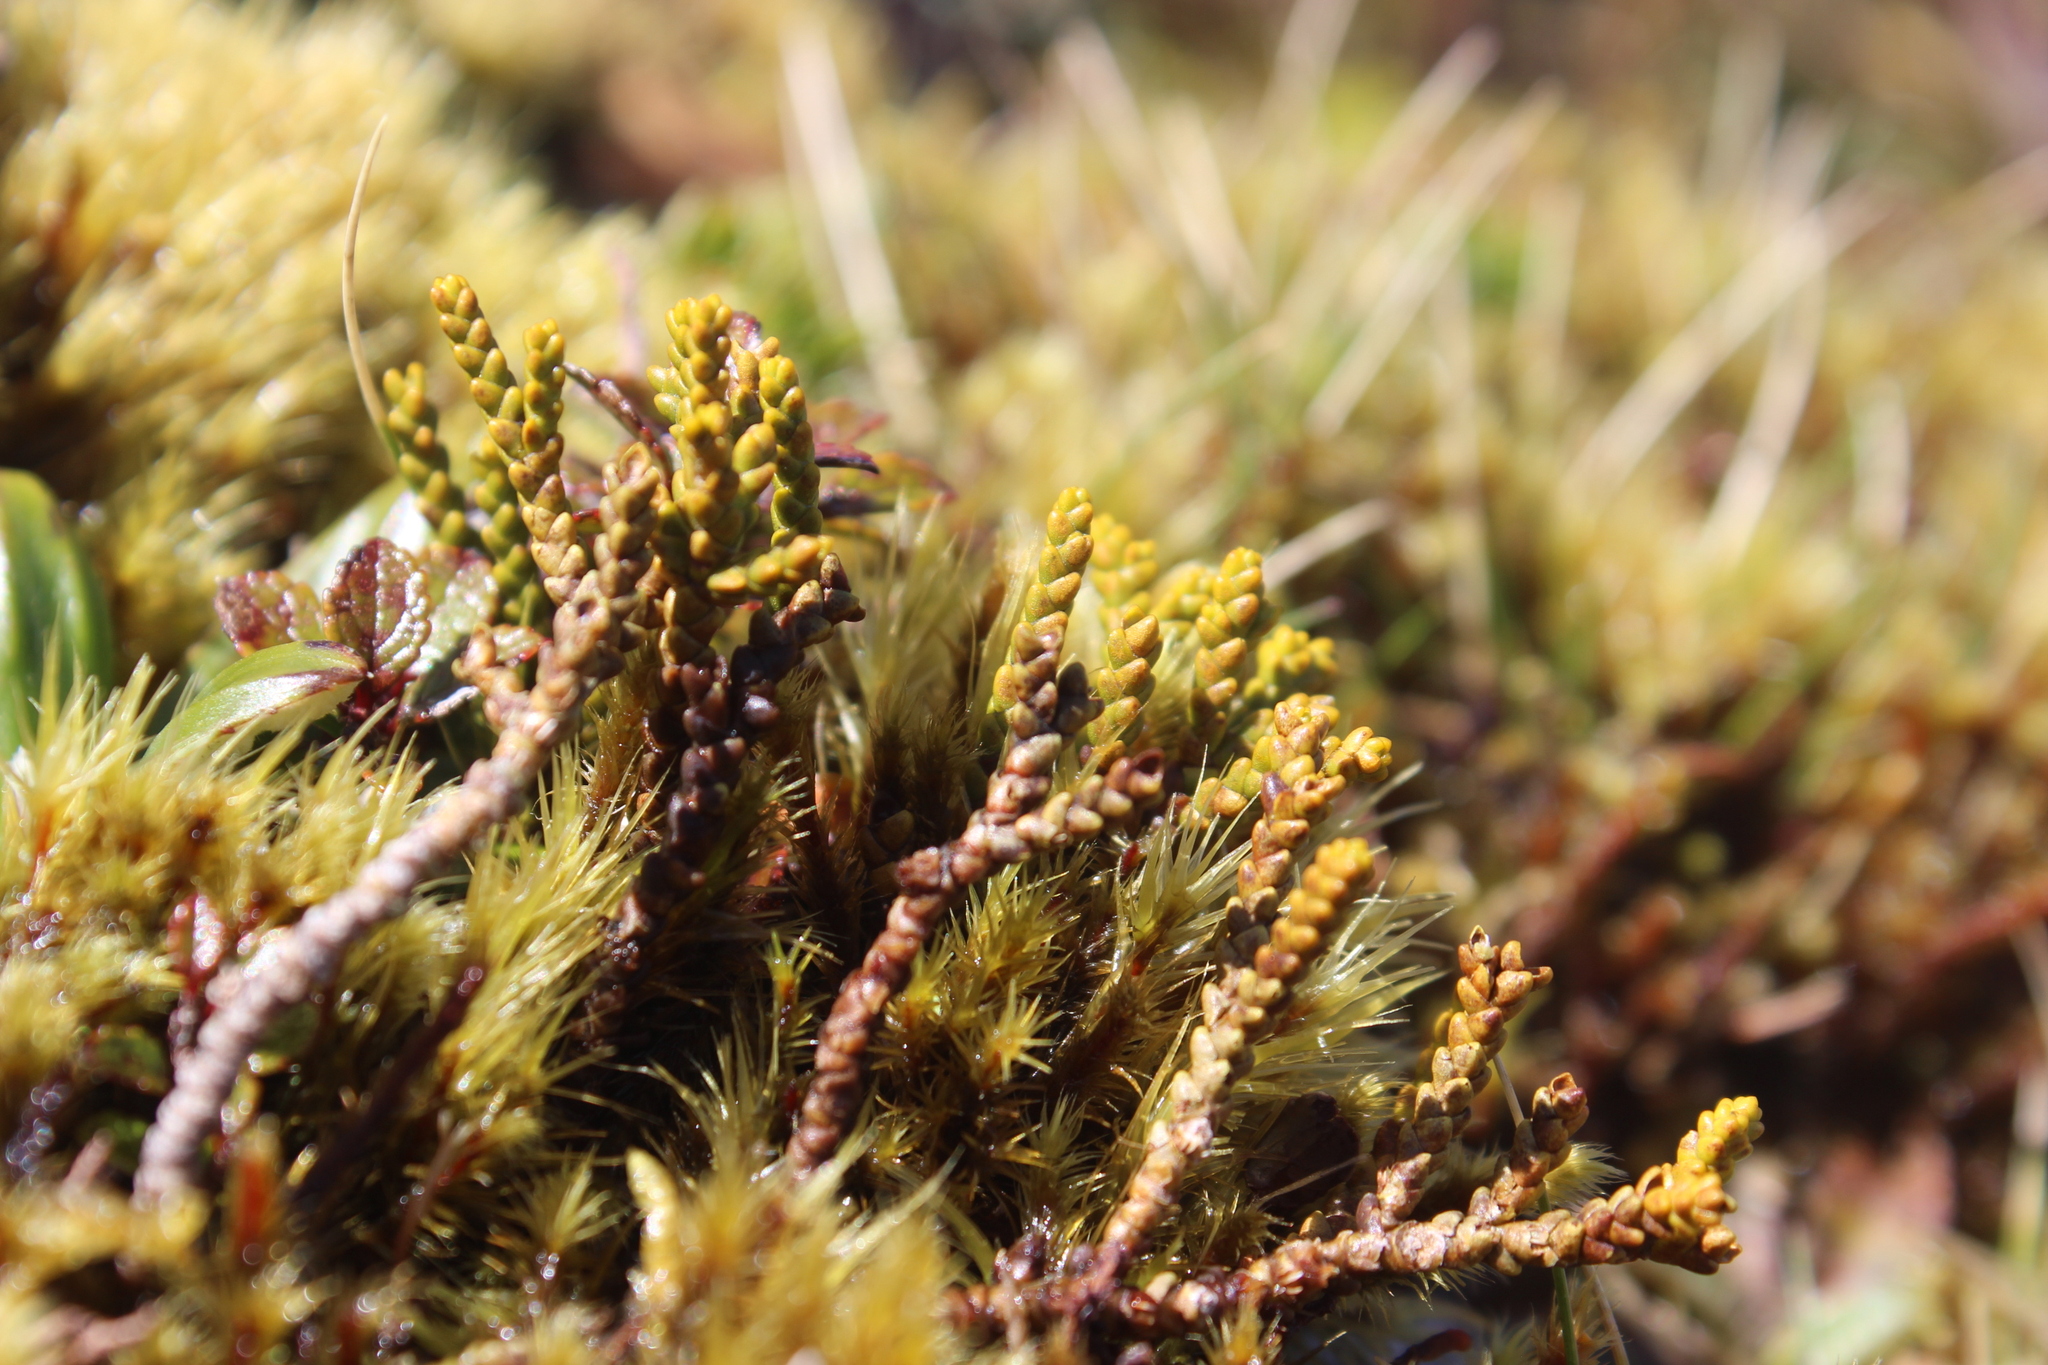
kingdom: Plantae
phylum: Tracheophyta
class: Magnoliopsida
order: Lamiales
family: Plantaginaceae
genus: Veronica
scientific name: Veronica tetragona
